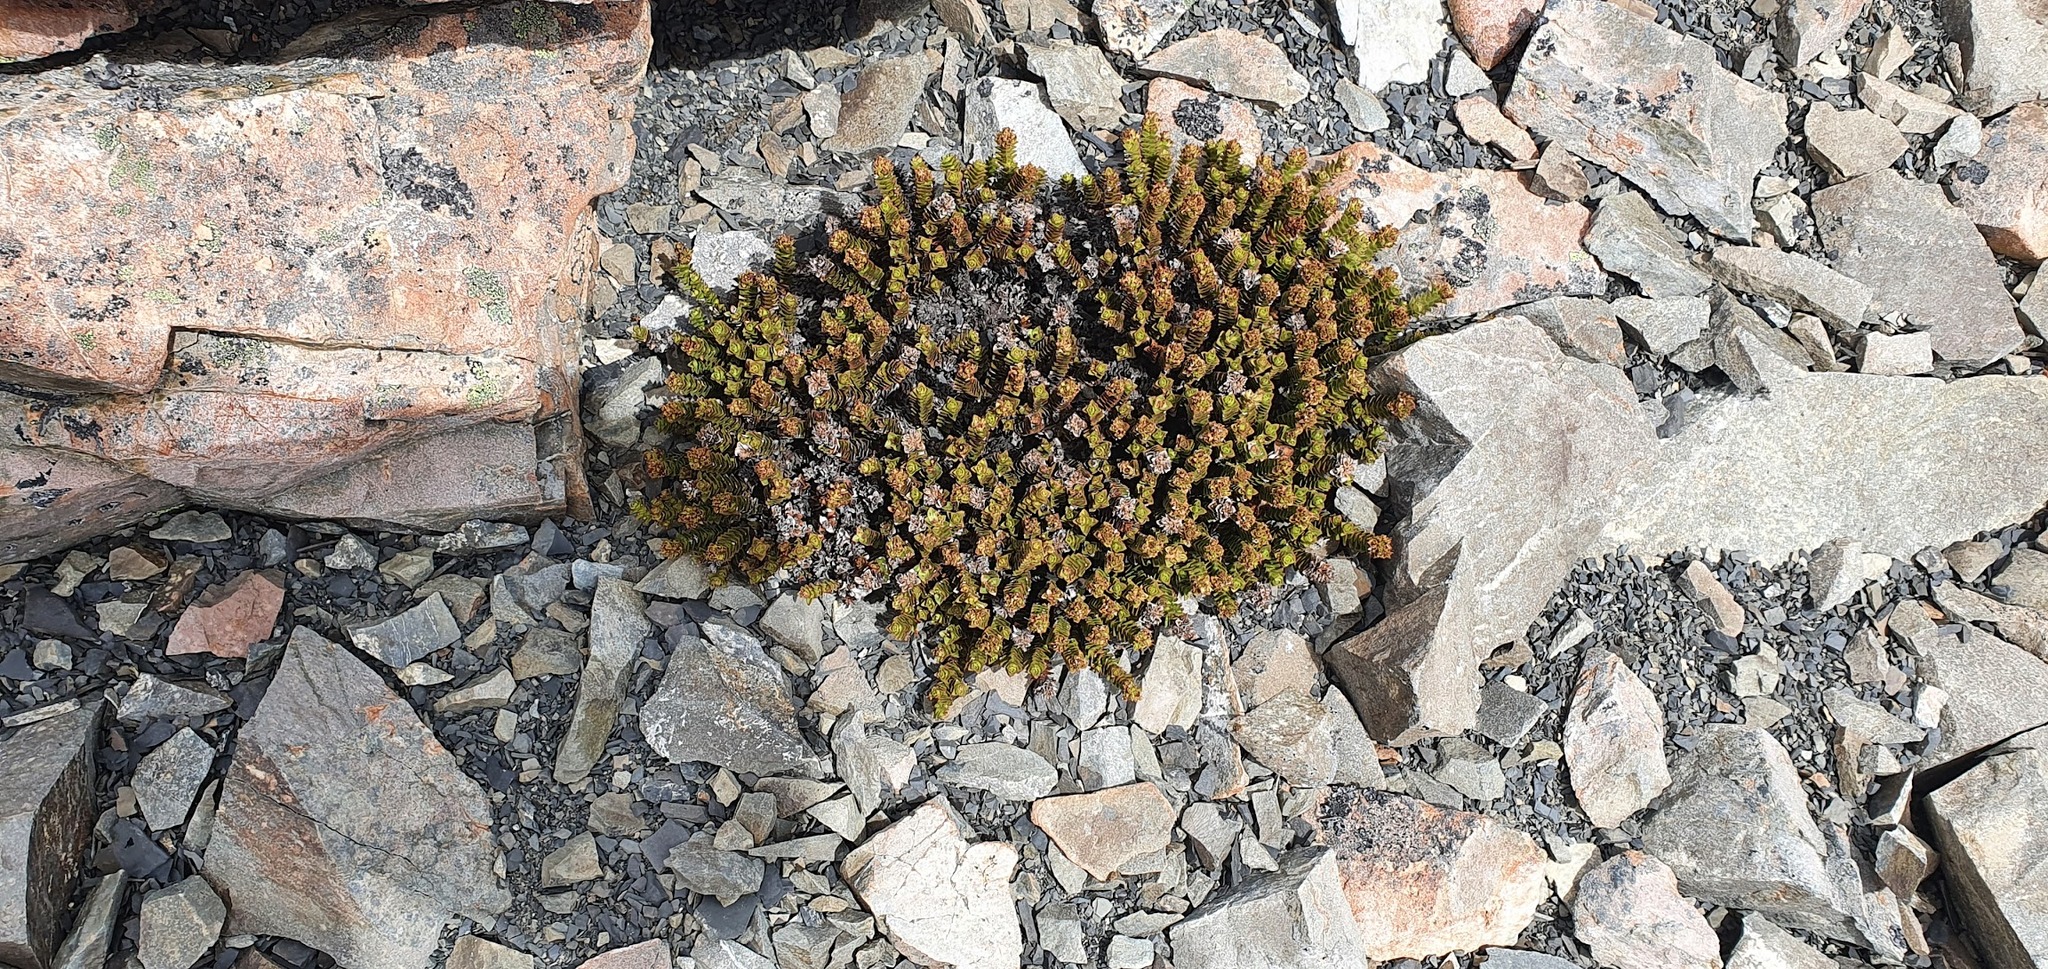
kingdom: Plantae
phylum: Tracheophyta
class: Magnoliopsida
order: Lamiales
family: Plantaginaceae
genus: Veronica
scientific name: Veronica epacridea
